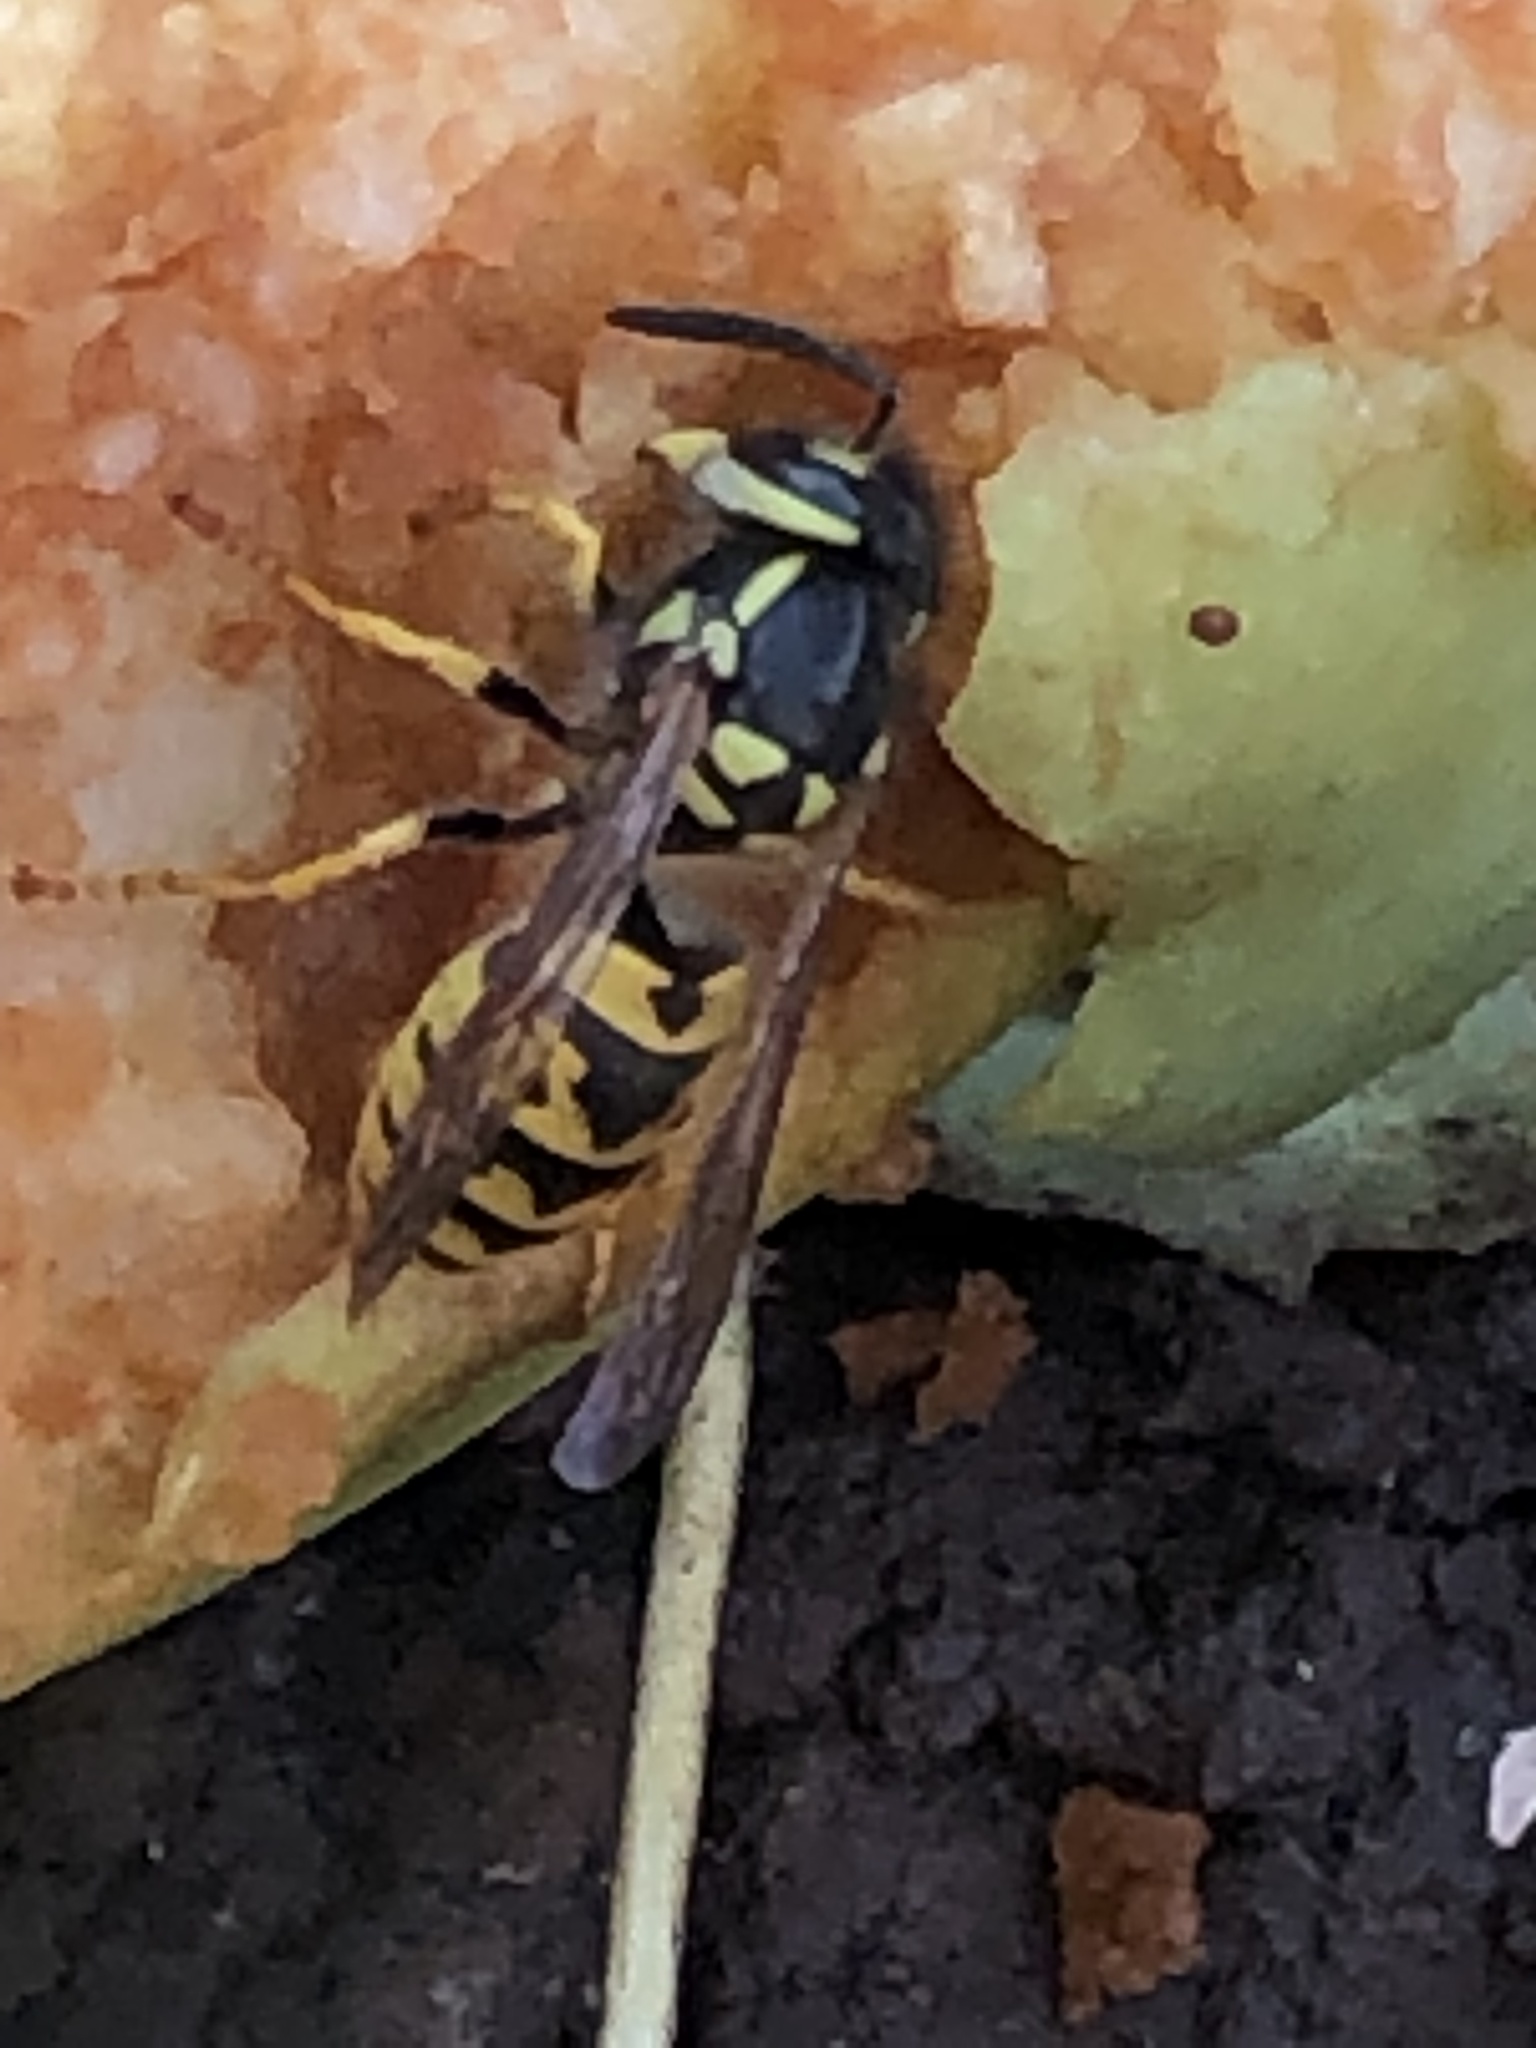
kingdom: Animalia
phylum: Arthropoda
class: Insecta
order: Hymenoptera
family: Vespidae
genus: Vespula
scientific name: Vespula germanica
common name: German wasp
